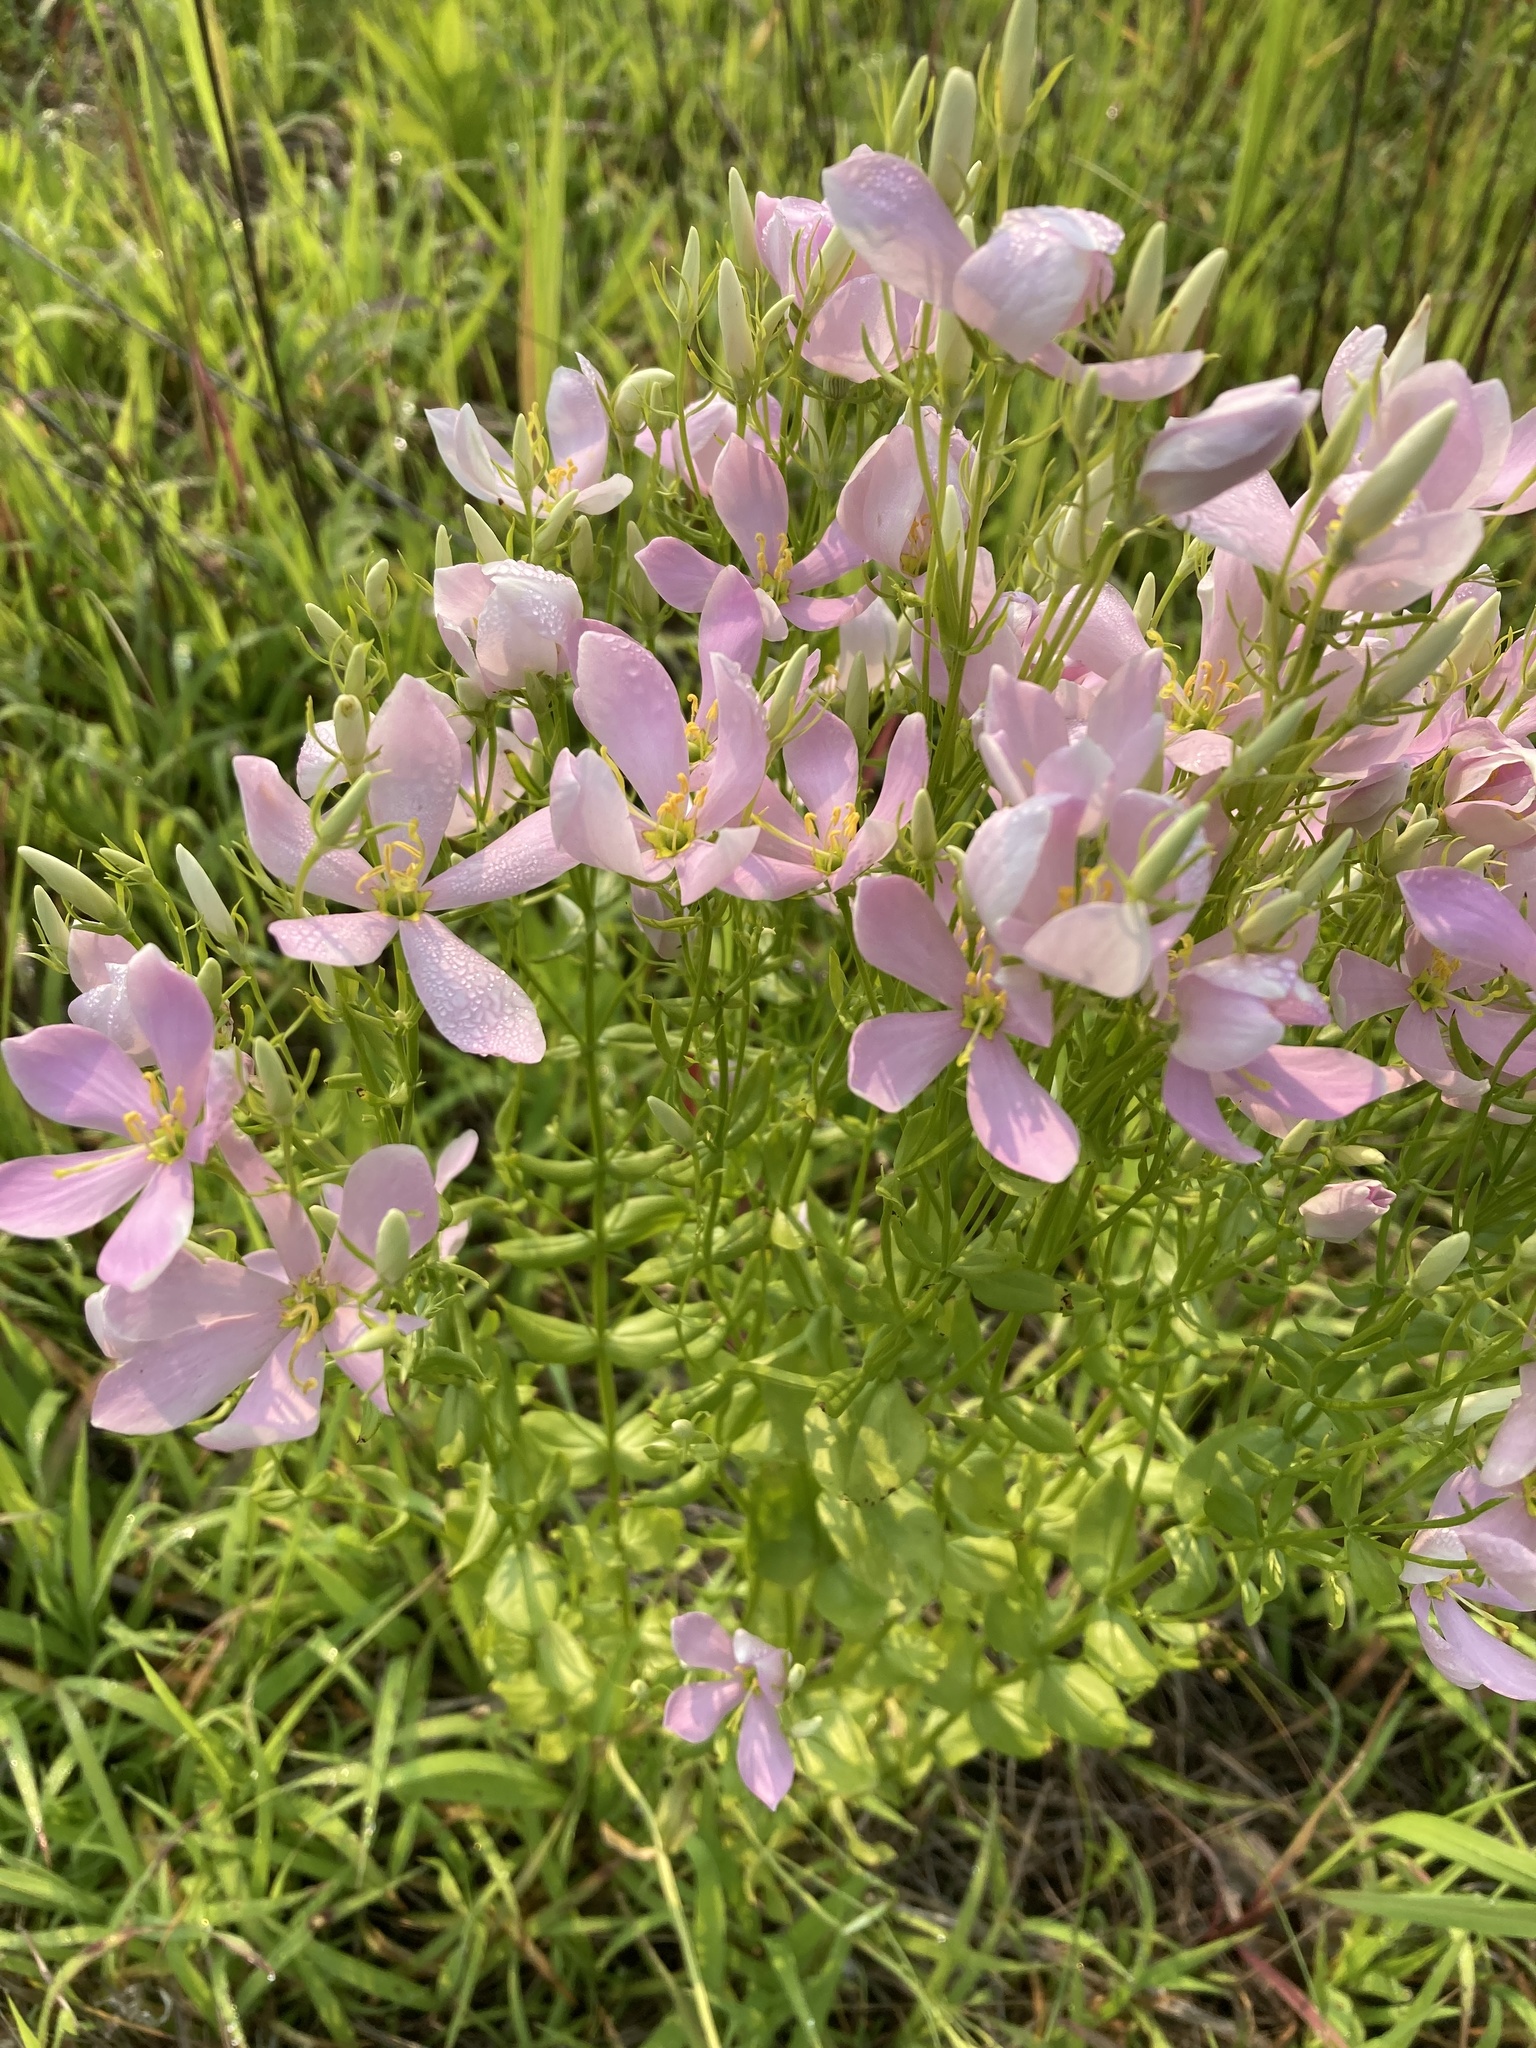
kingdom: Plantae
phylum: Tracheophyta
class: Magnoliopsida
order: Gentianales
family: Gentianaceae
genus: Sabatia
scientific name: Sabatia angularis
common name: Rose-pink
